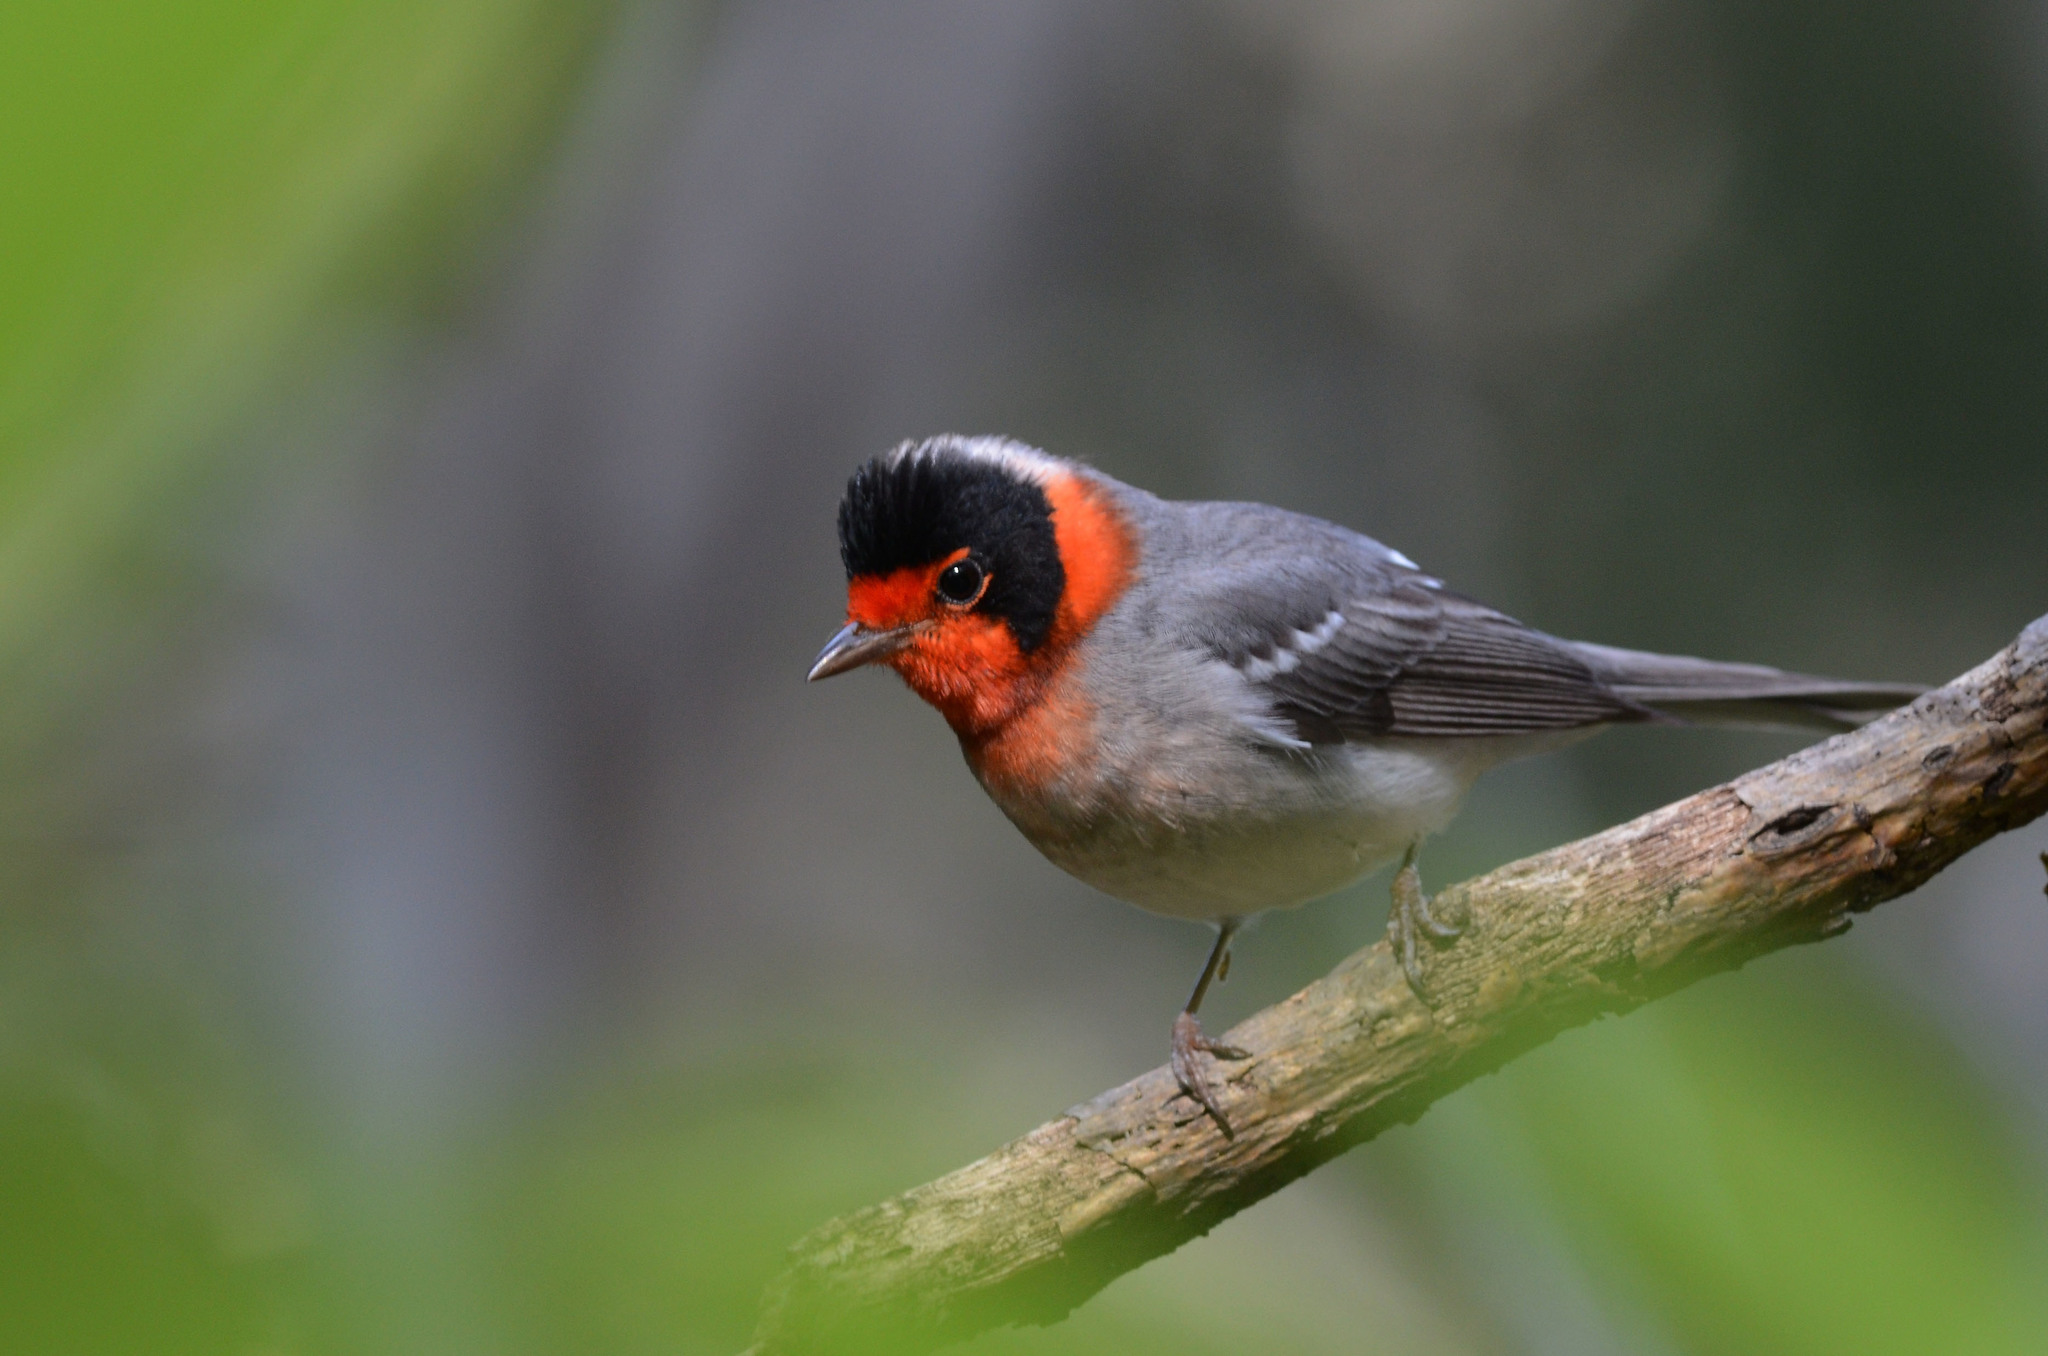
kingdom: Animalia
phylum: Chordata
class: Aves
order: Passeriformes
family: Parulidae
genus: Cardellina
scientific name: Cardellina rubrifrons
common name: Red-faced warbler
